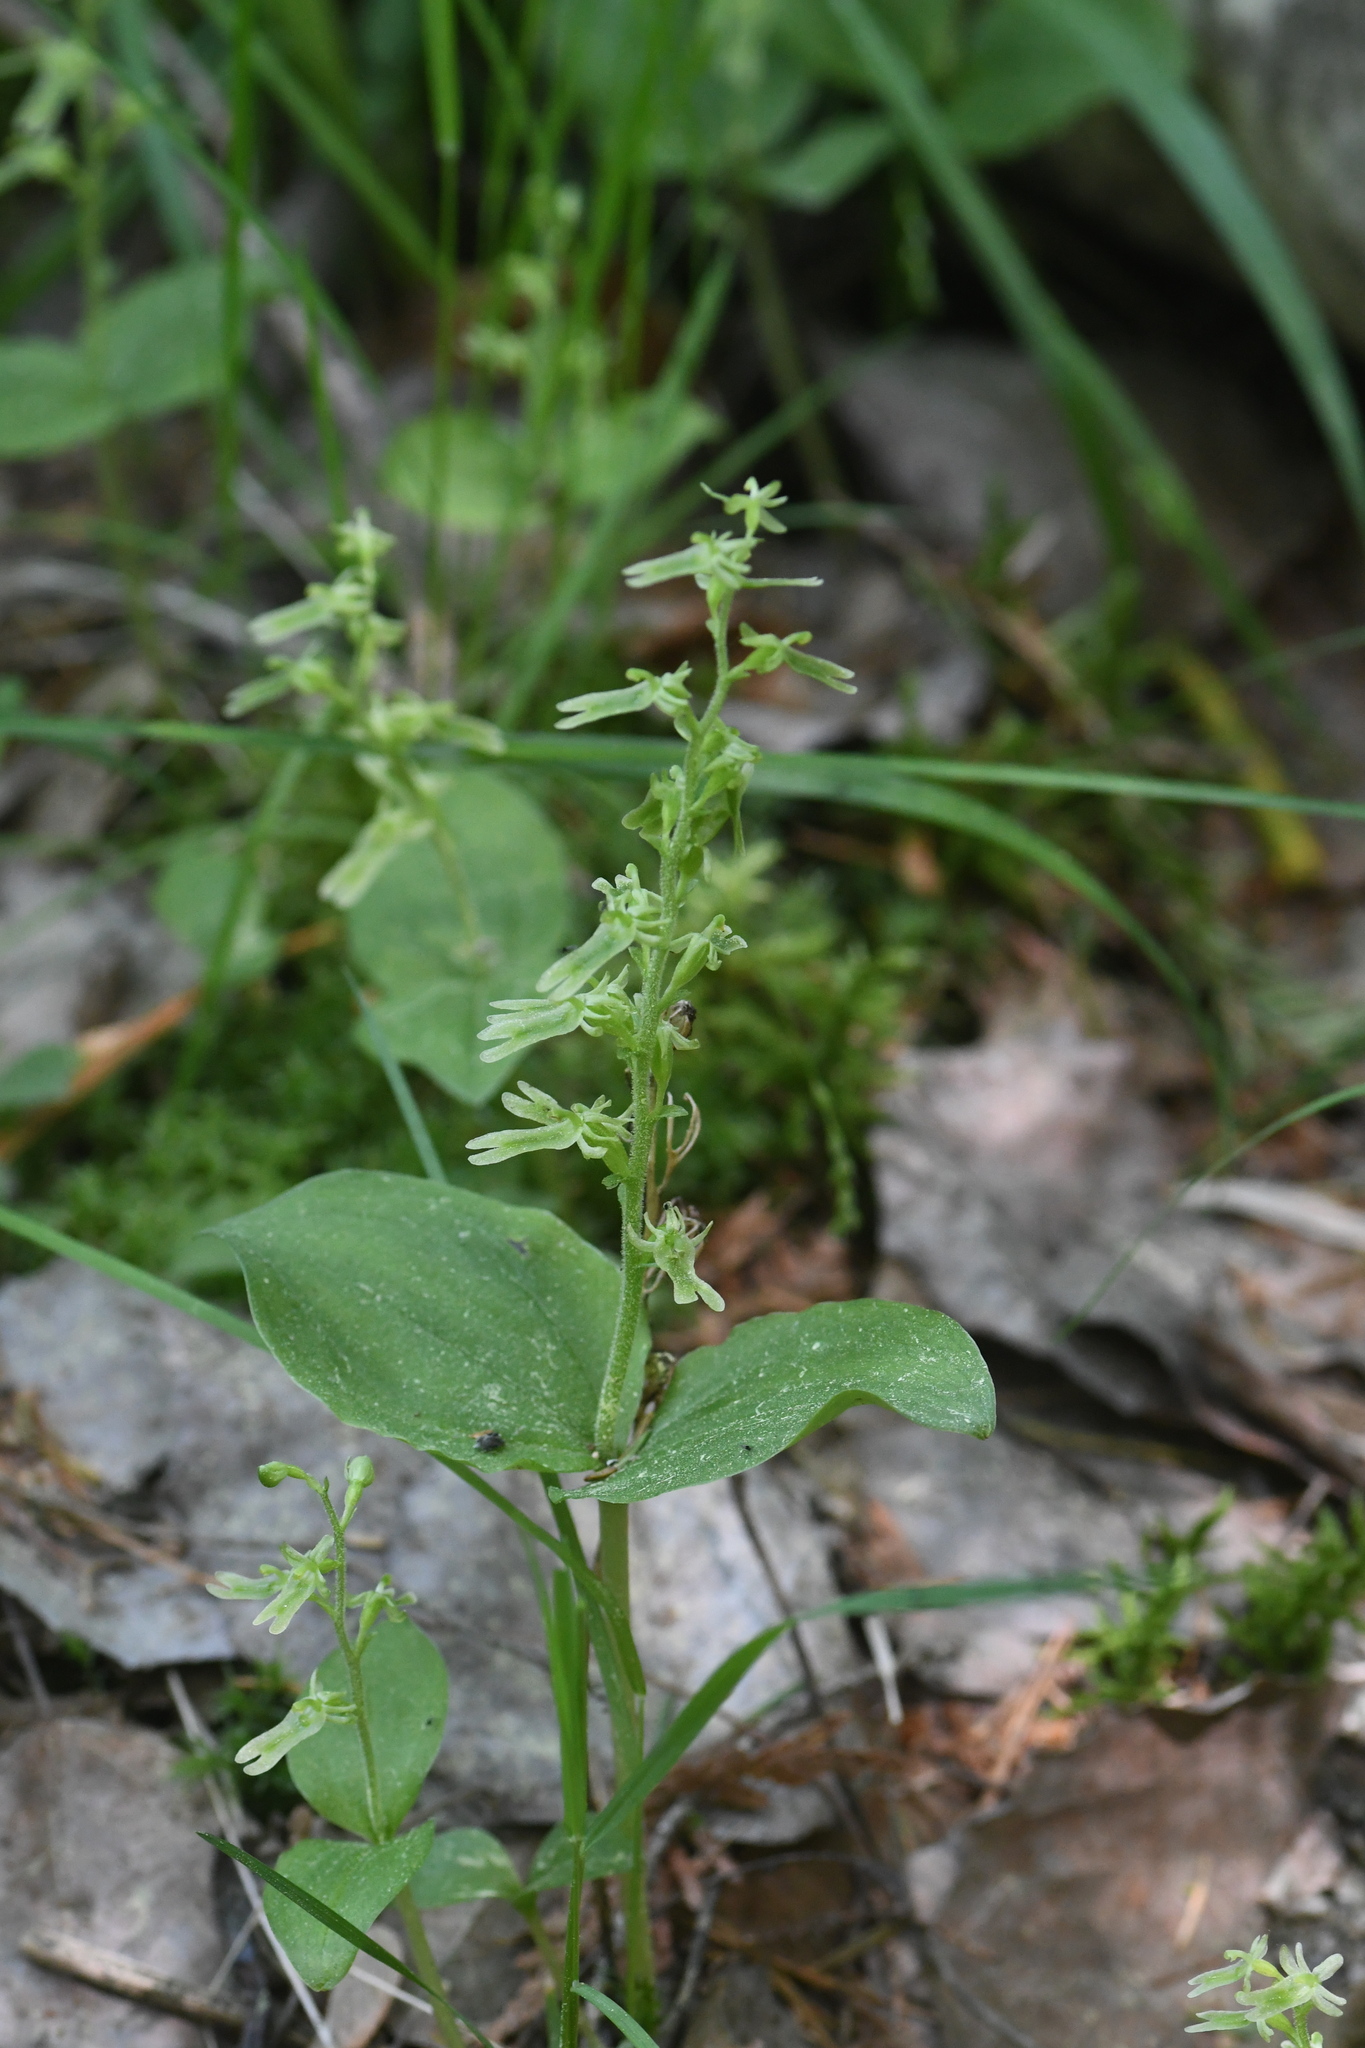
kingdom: Plantae
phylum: Tracheophyta
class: Liliopsida
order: Asparagales
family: Orchidaceae
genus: Neottia
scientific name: Neottia auriculata
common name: Auricled twayblade
